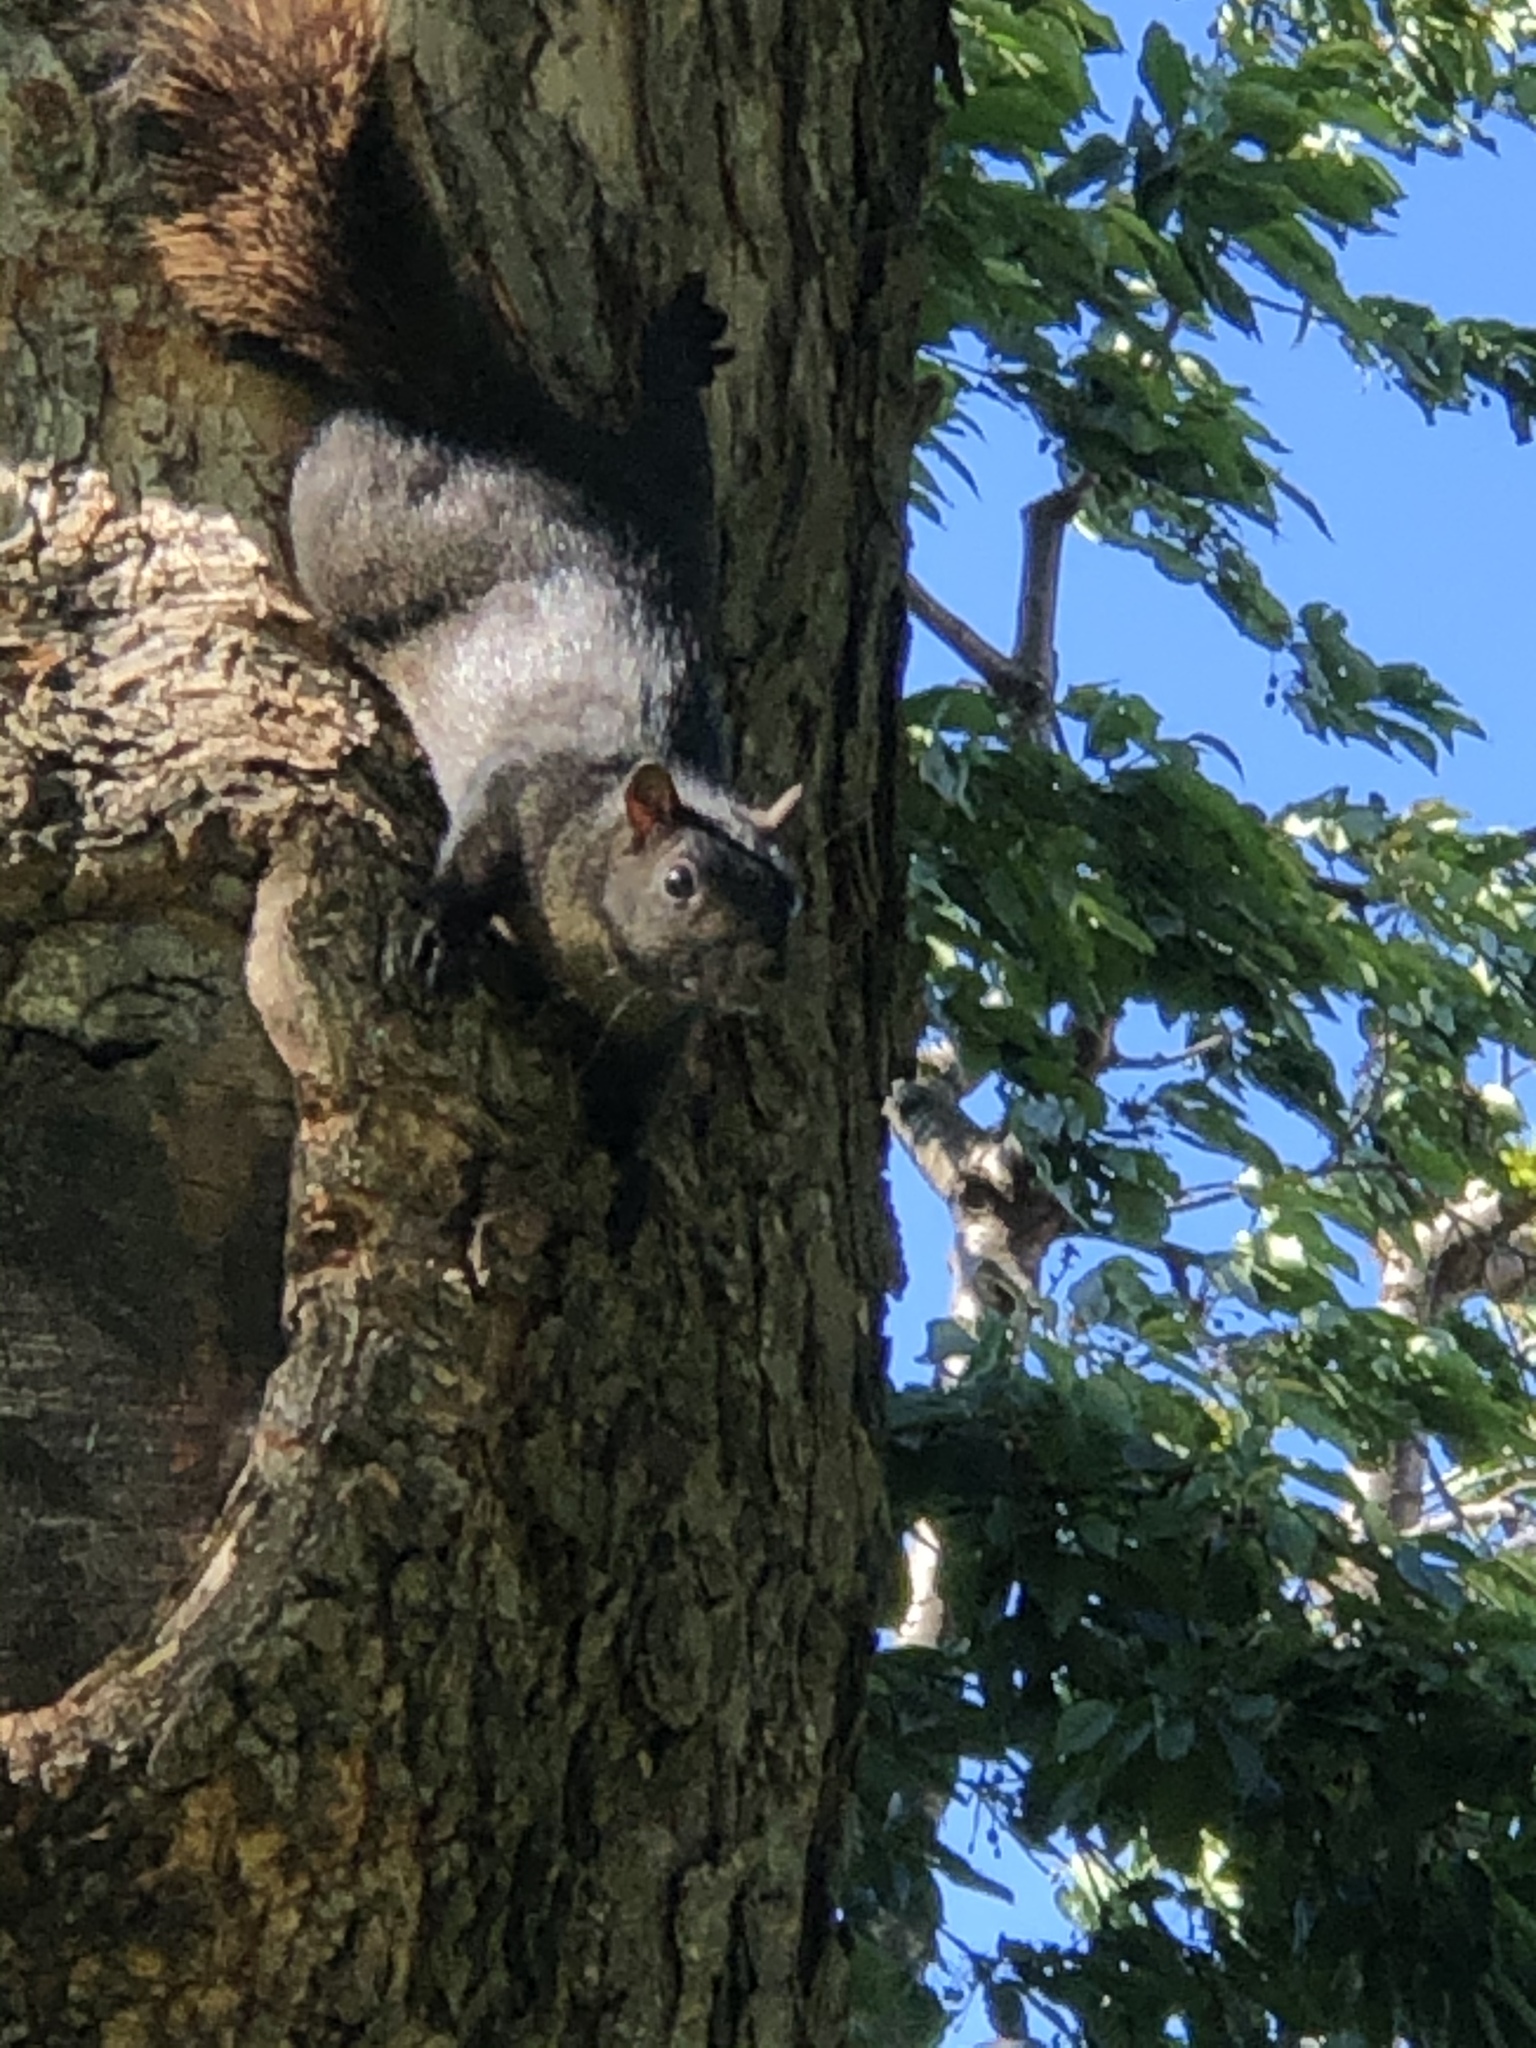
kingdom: Animalia
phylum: Chordata
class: Mammalia
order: Rodentia
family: Sciuridae
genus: Sciurus
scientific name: Sciurus carolinensis
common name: Eastern gray squirrel
